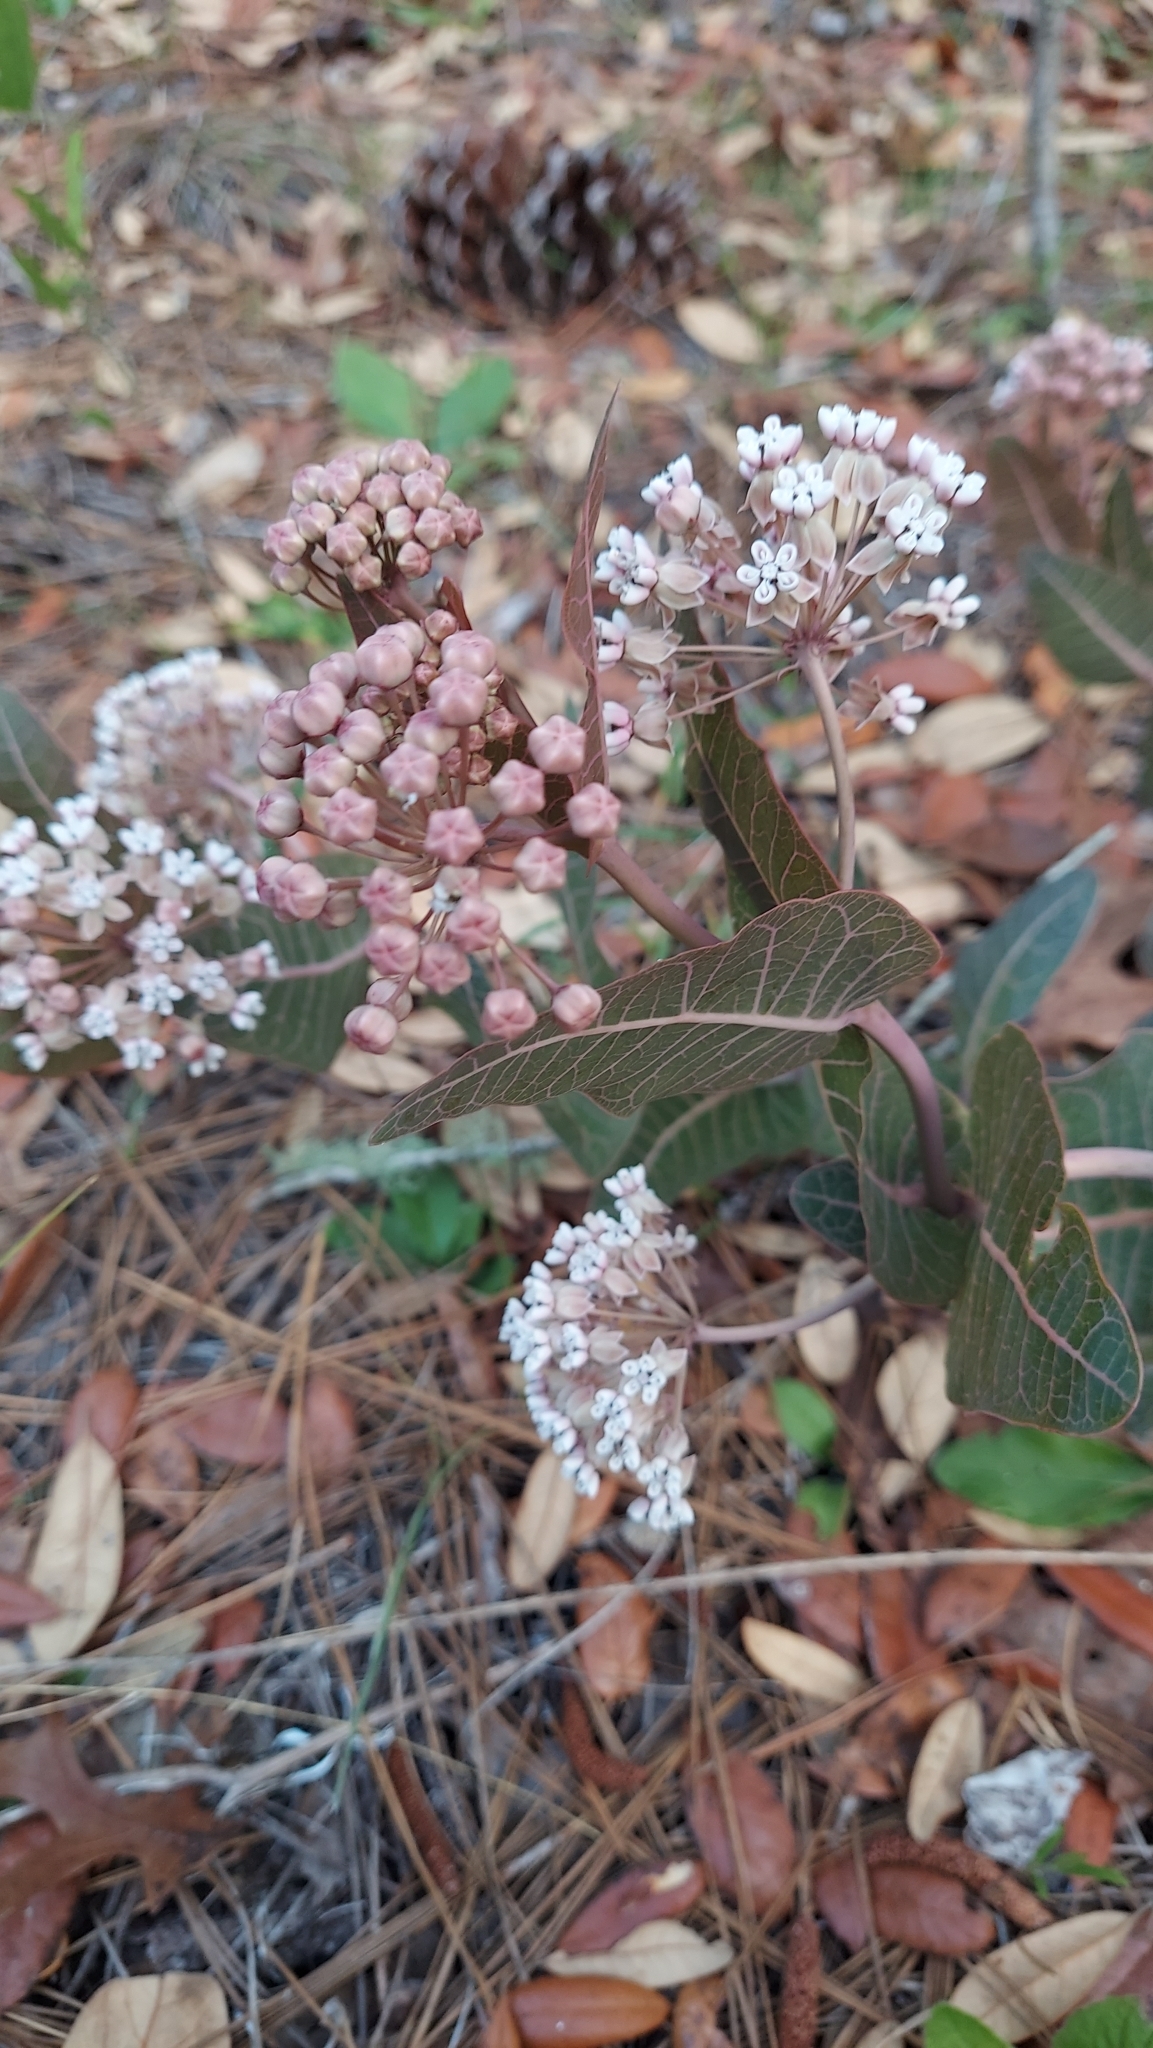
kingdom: Plantae
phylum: Tracheophyta
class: Magnoliopsida
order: Gentianales
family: Apocynaceae
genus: Asclepias
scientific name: Asclepias humistrata
